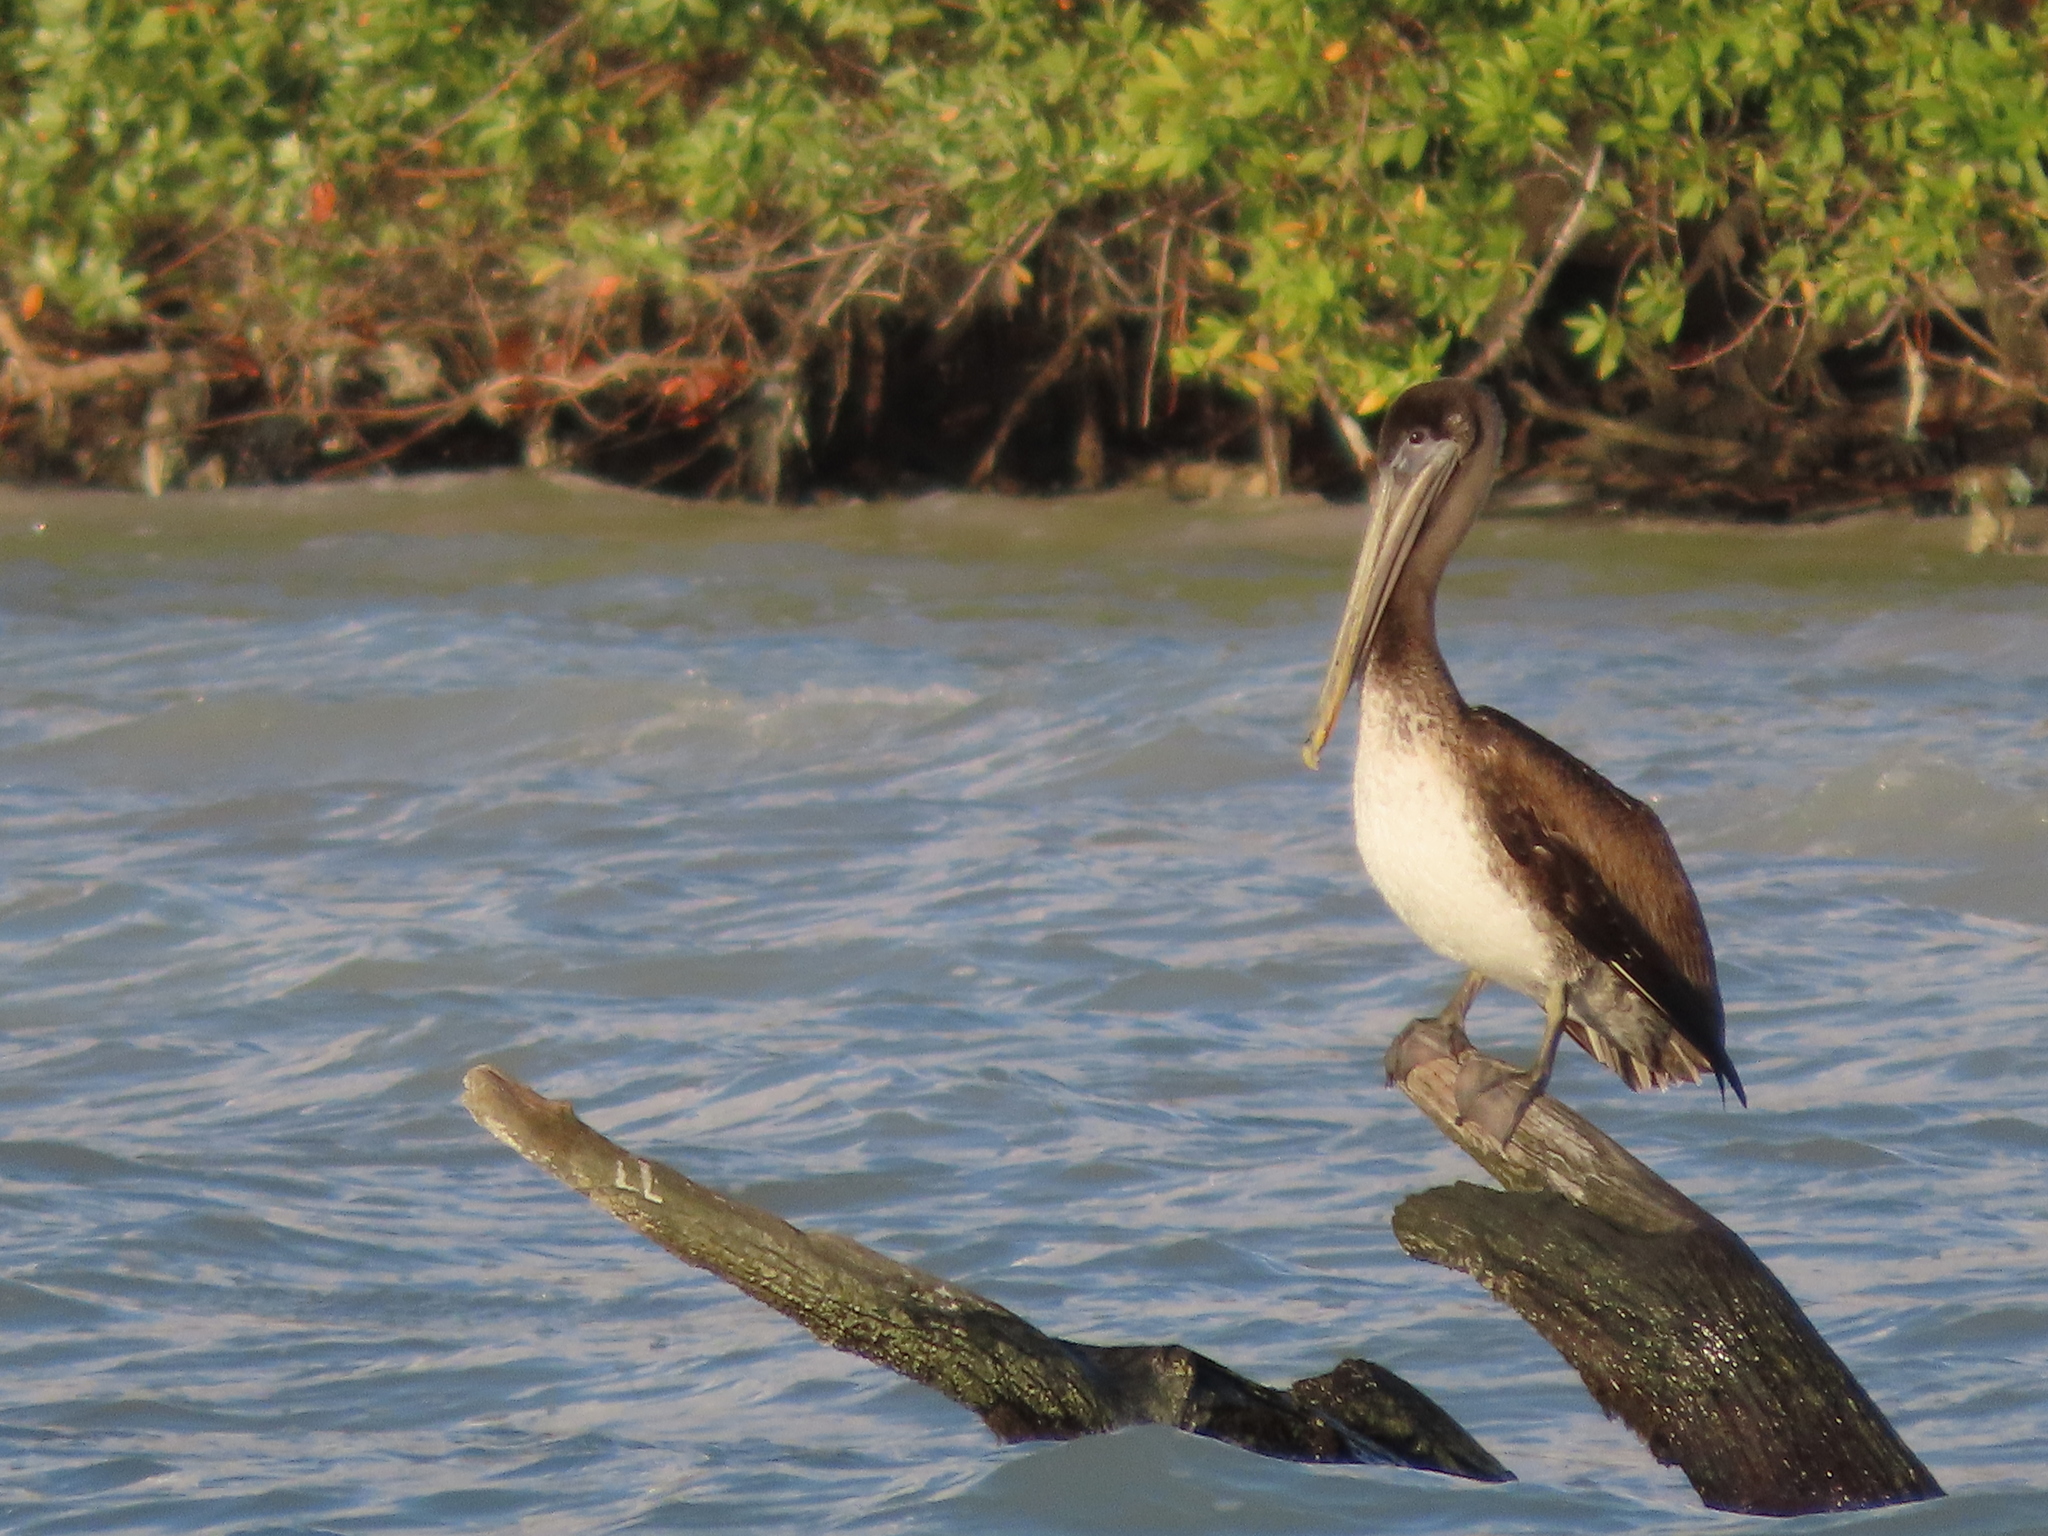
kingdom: Animalia
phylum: Chordata
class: Aves
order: Pelecaniformes
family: Pelecanidae
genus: Pelecanus
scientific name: Pelecanus occidentalis
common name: Brown pelican
